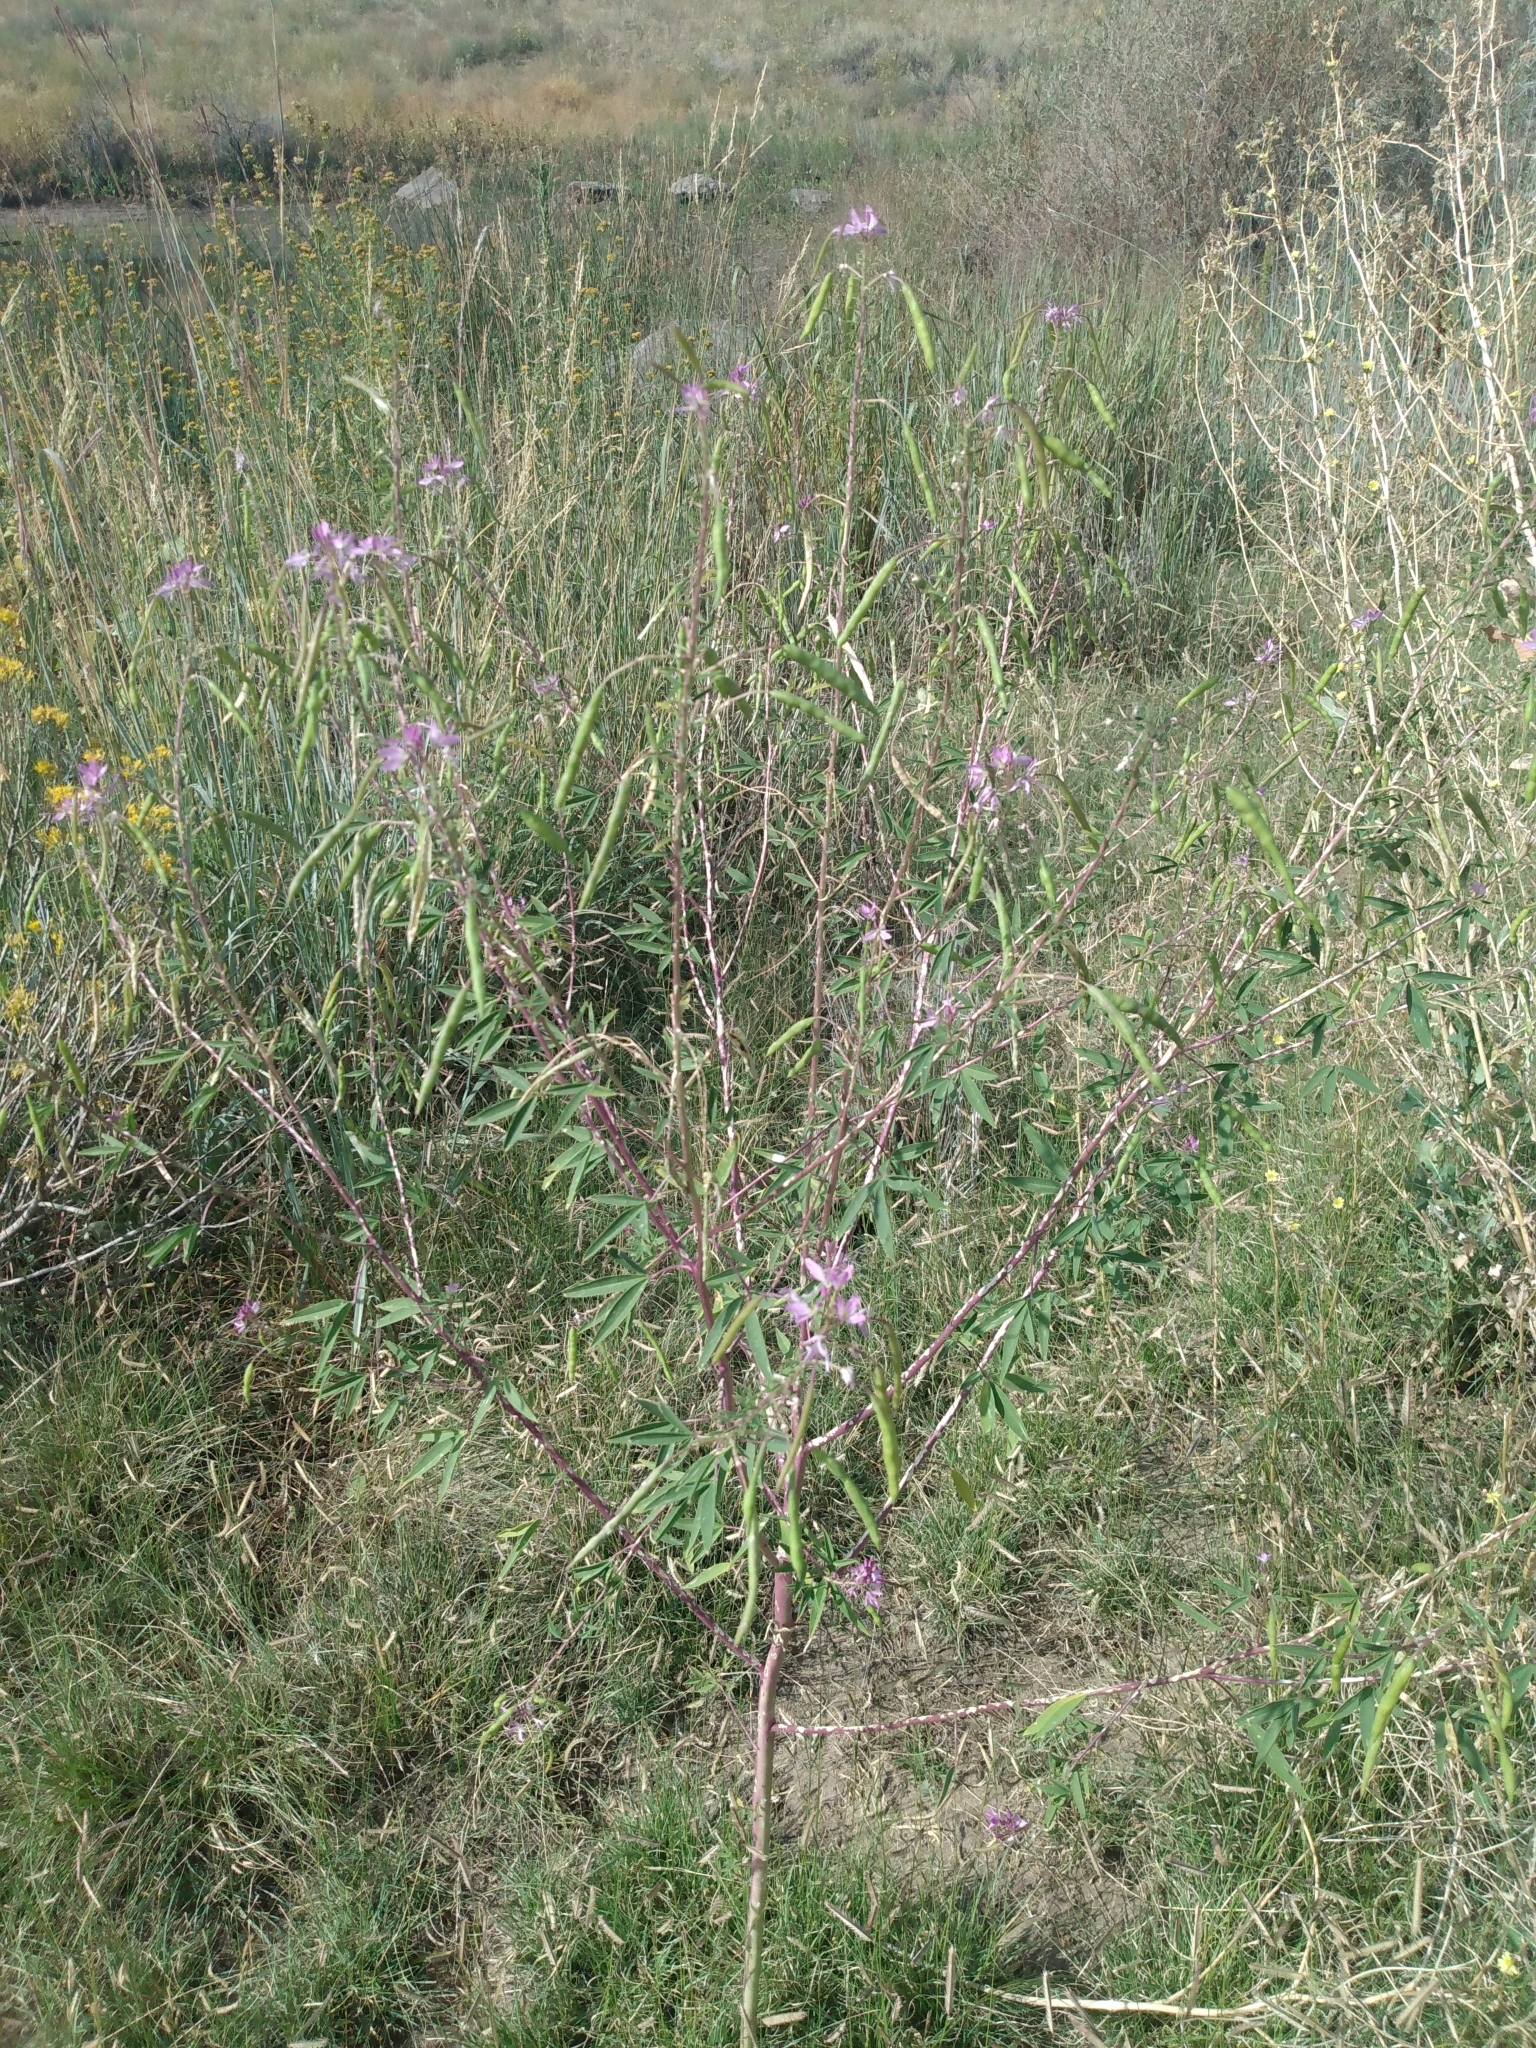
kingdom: Plantae
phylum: Tracheophyta
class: Magnoliopsida
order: Brassicales
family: Cleomaceae
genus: Cleomella
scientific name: Cleomella serrulata
